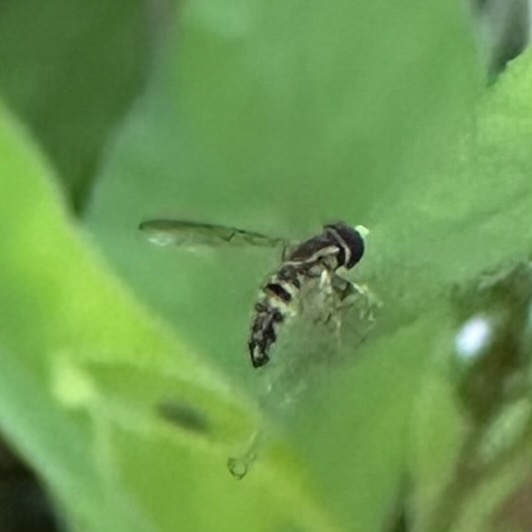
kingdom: Animalia
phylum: Arthropoda
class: Insecta
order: Diptera
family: Syrphidae
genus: Toxomerus
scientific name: Toxomerus geminatus
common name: Eastern calligrapher
